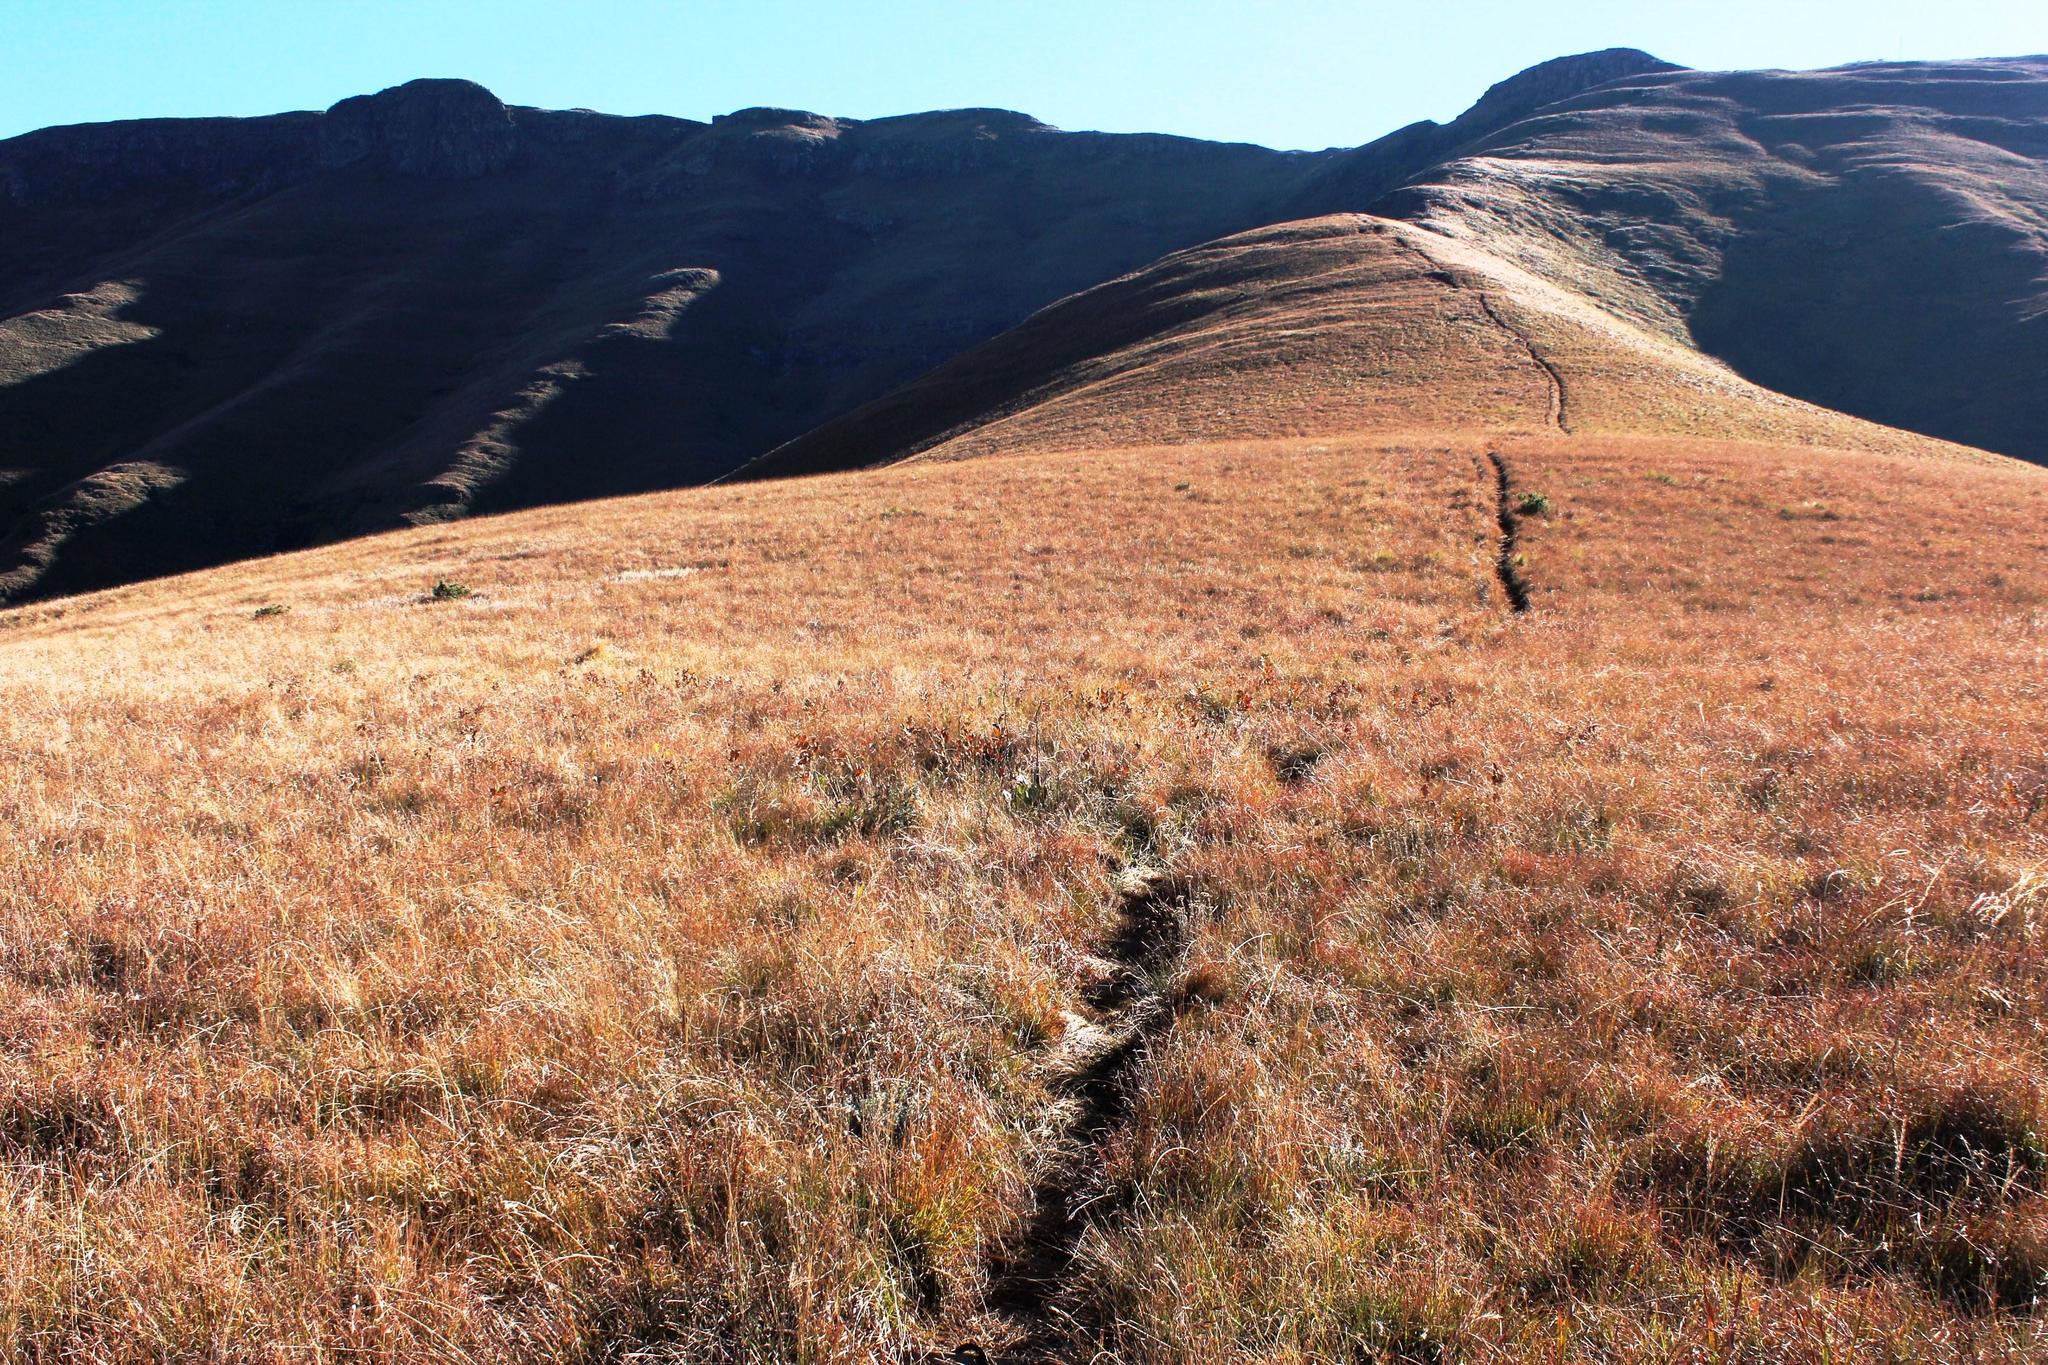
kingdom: Plantae
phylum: Tracheophyta
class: Magnoliopsida
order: Sapindales
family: Anacardiaceae
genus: Searsia
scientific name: Searsia discolor
